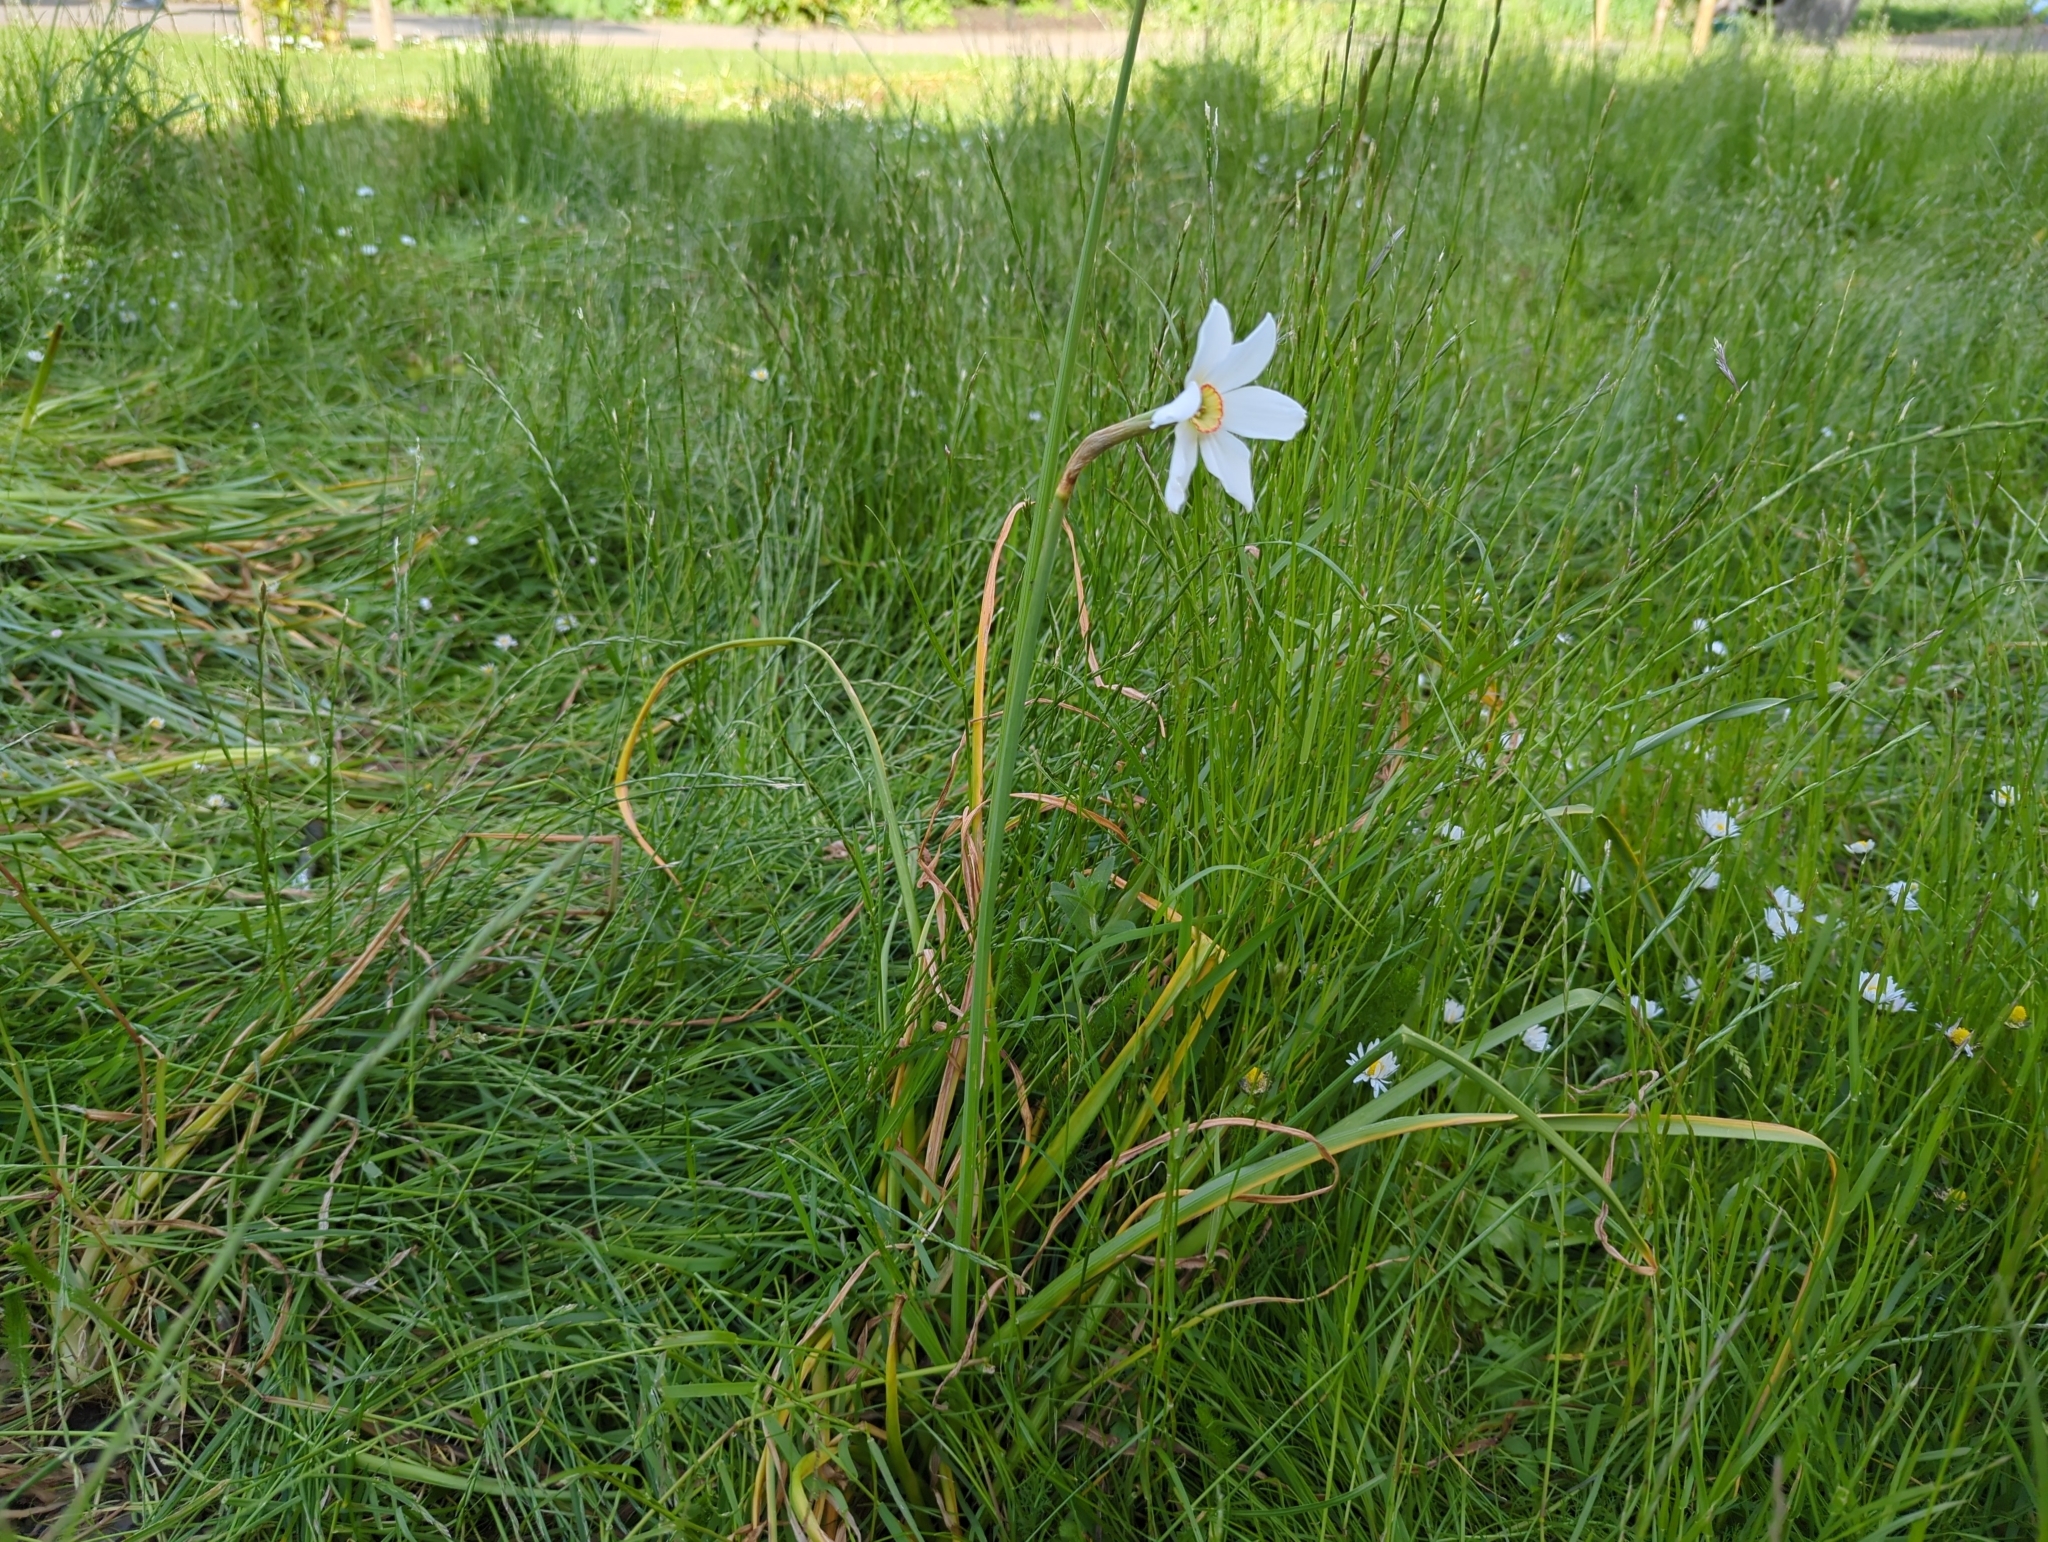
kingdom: Plantae
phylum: Tracheophyta
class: Liliopsida
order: Asparagales
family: Amaryllidaceae
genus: Narcissus
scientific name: Narcissus poeticus
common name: Pheasant's-eye daffodil
